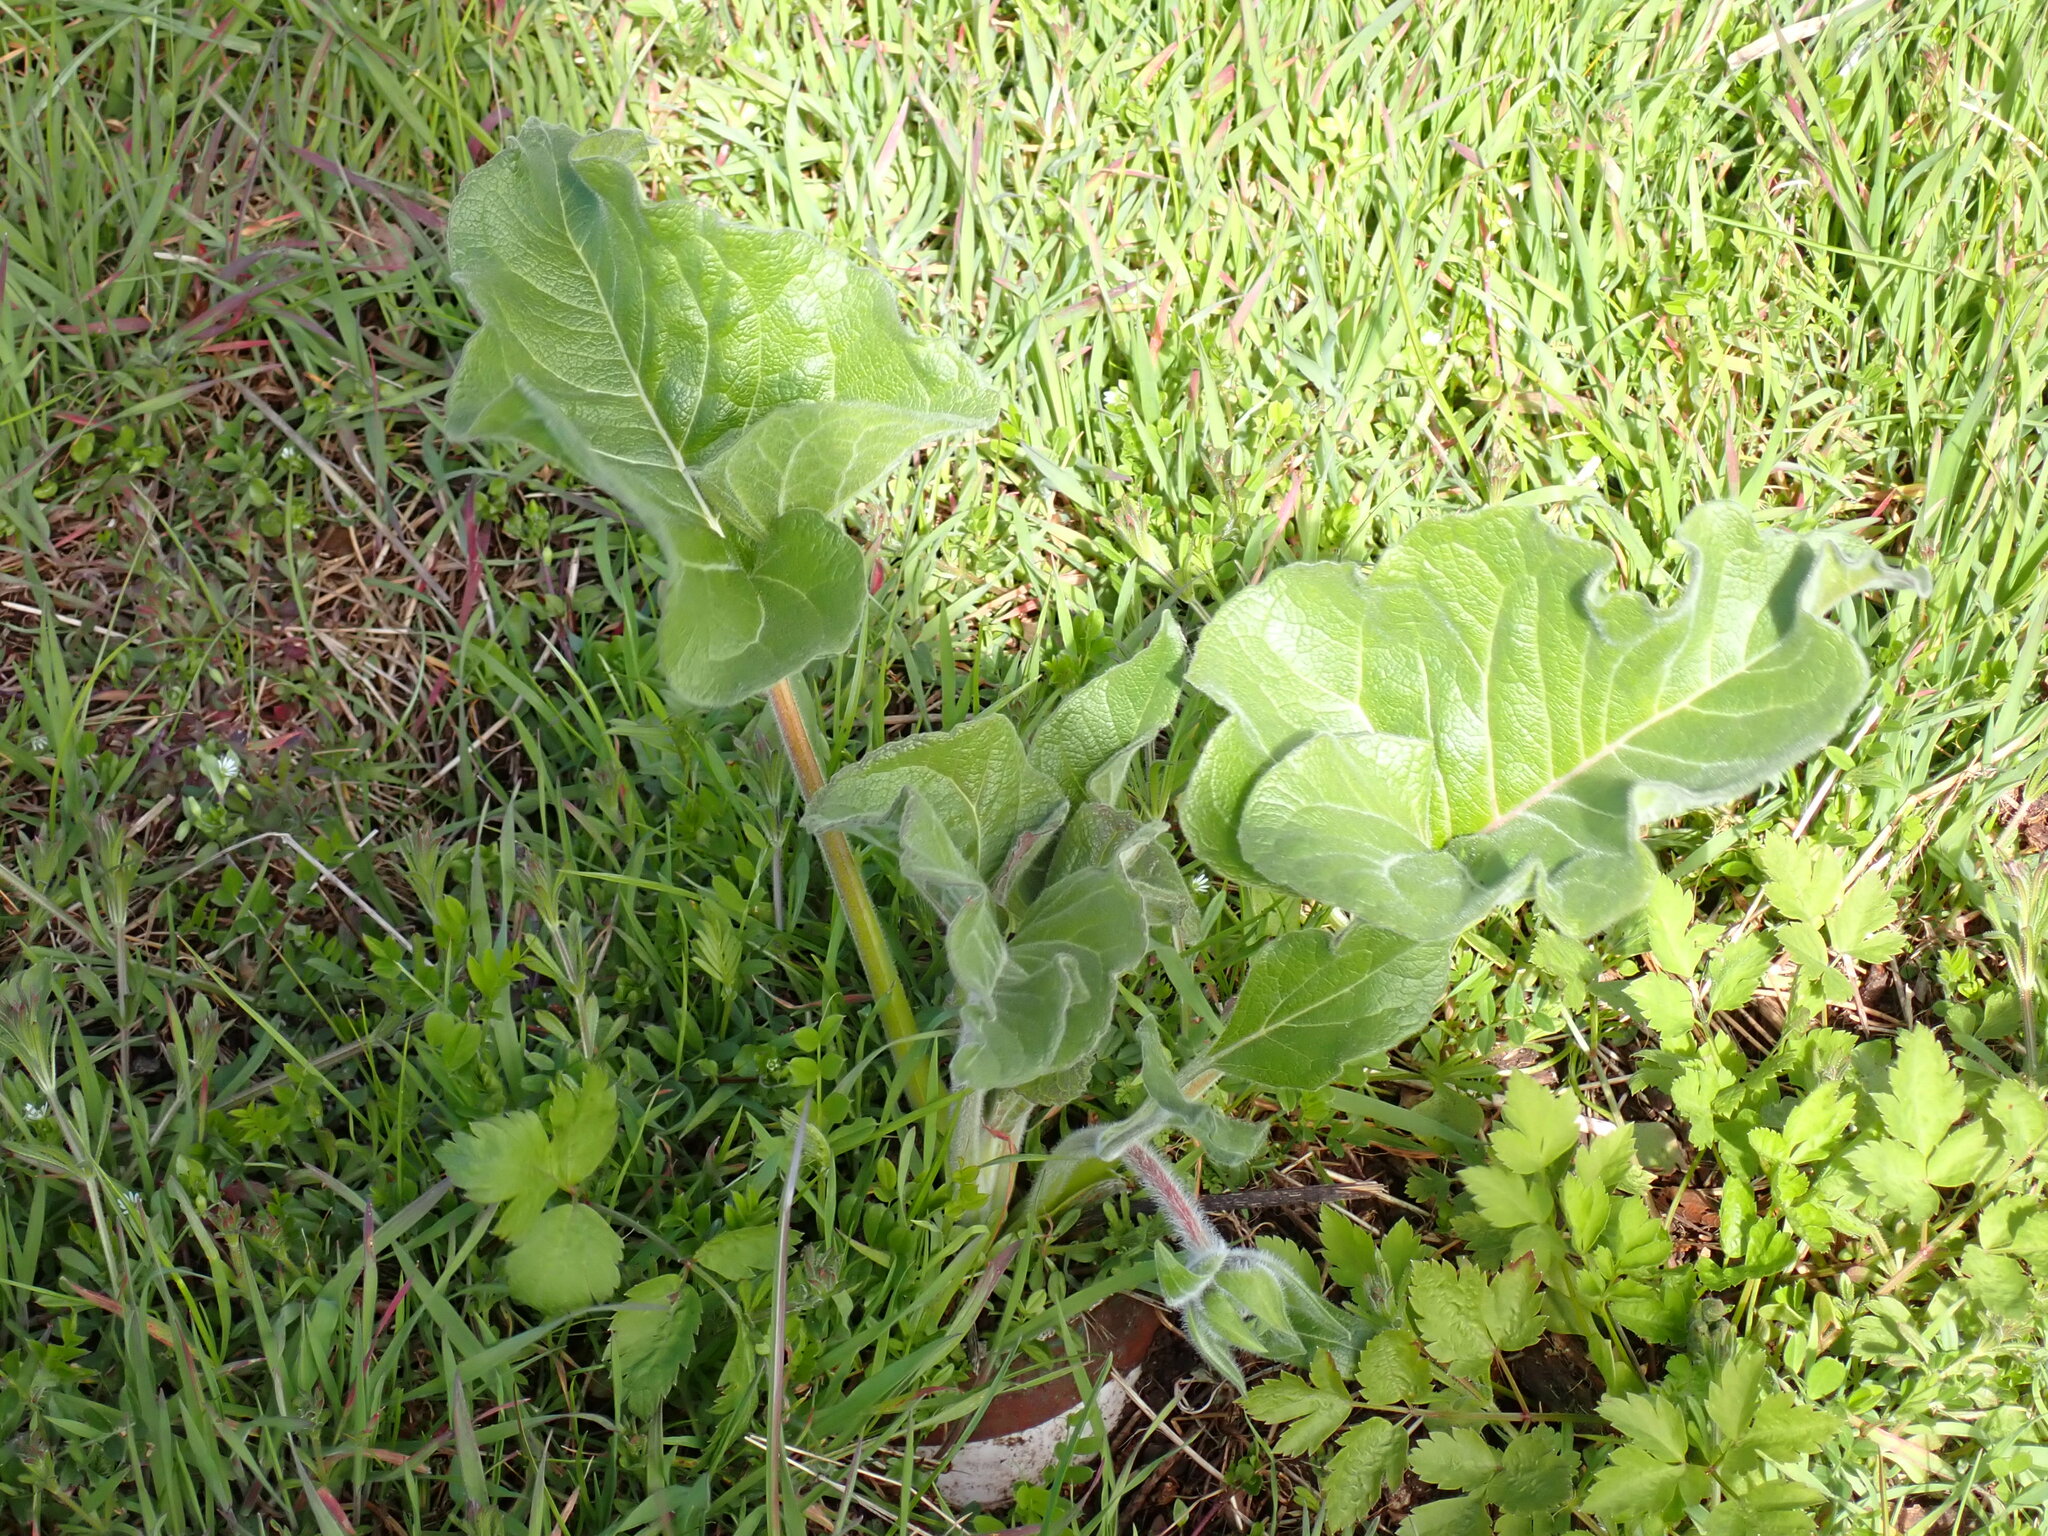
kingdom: Plantae
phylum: Tracheophyta
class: Magnoliopsida
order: Asterales
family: Asteraceae
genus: Balsamorhiza
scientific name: Balsamorhiza deltoidea
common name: Deltoid balsamroot
